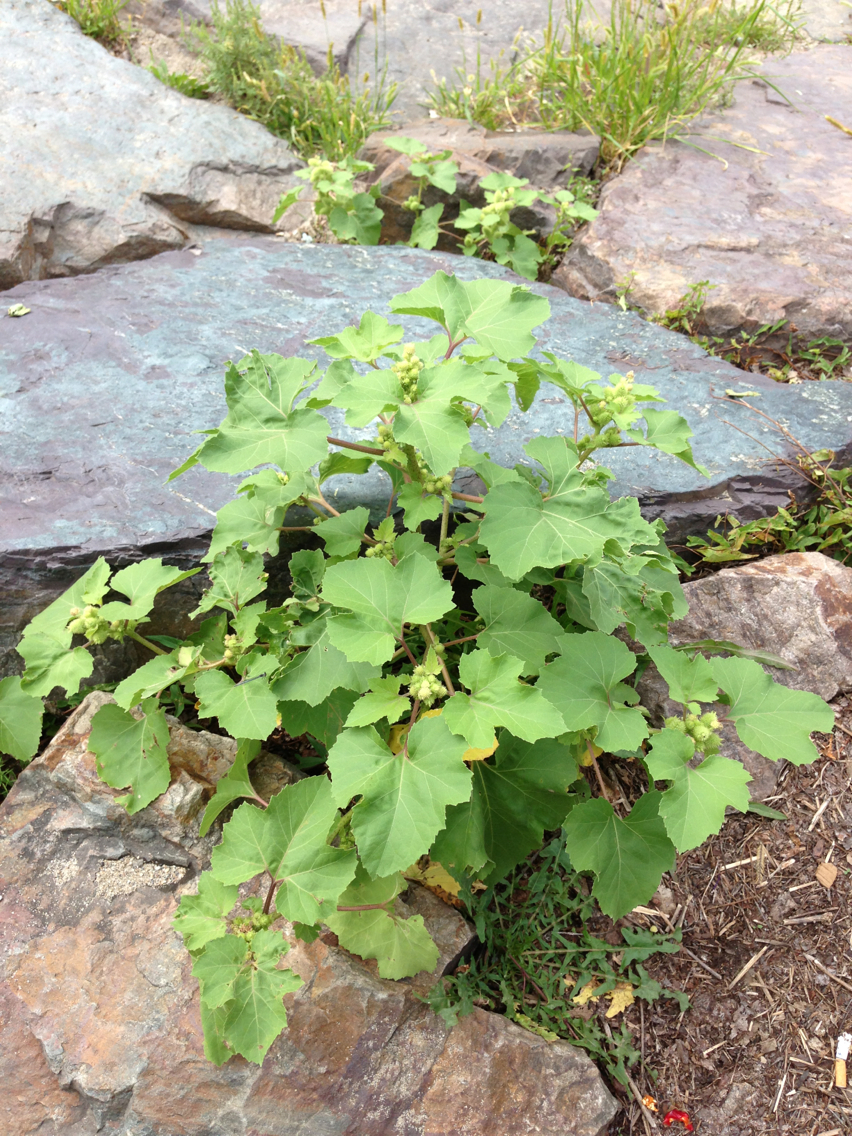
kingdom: Plantae
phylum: Tracheophyta
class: Magnoliopsida
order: Asterales
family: Asteraceae
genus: Xanthium
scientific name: Xanthium strumarium
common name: Rough cocklebur
